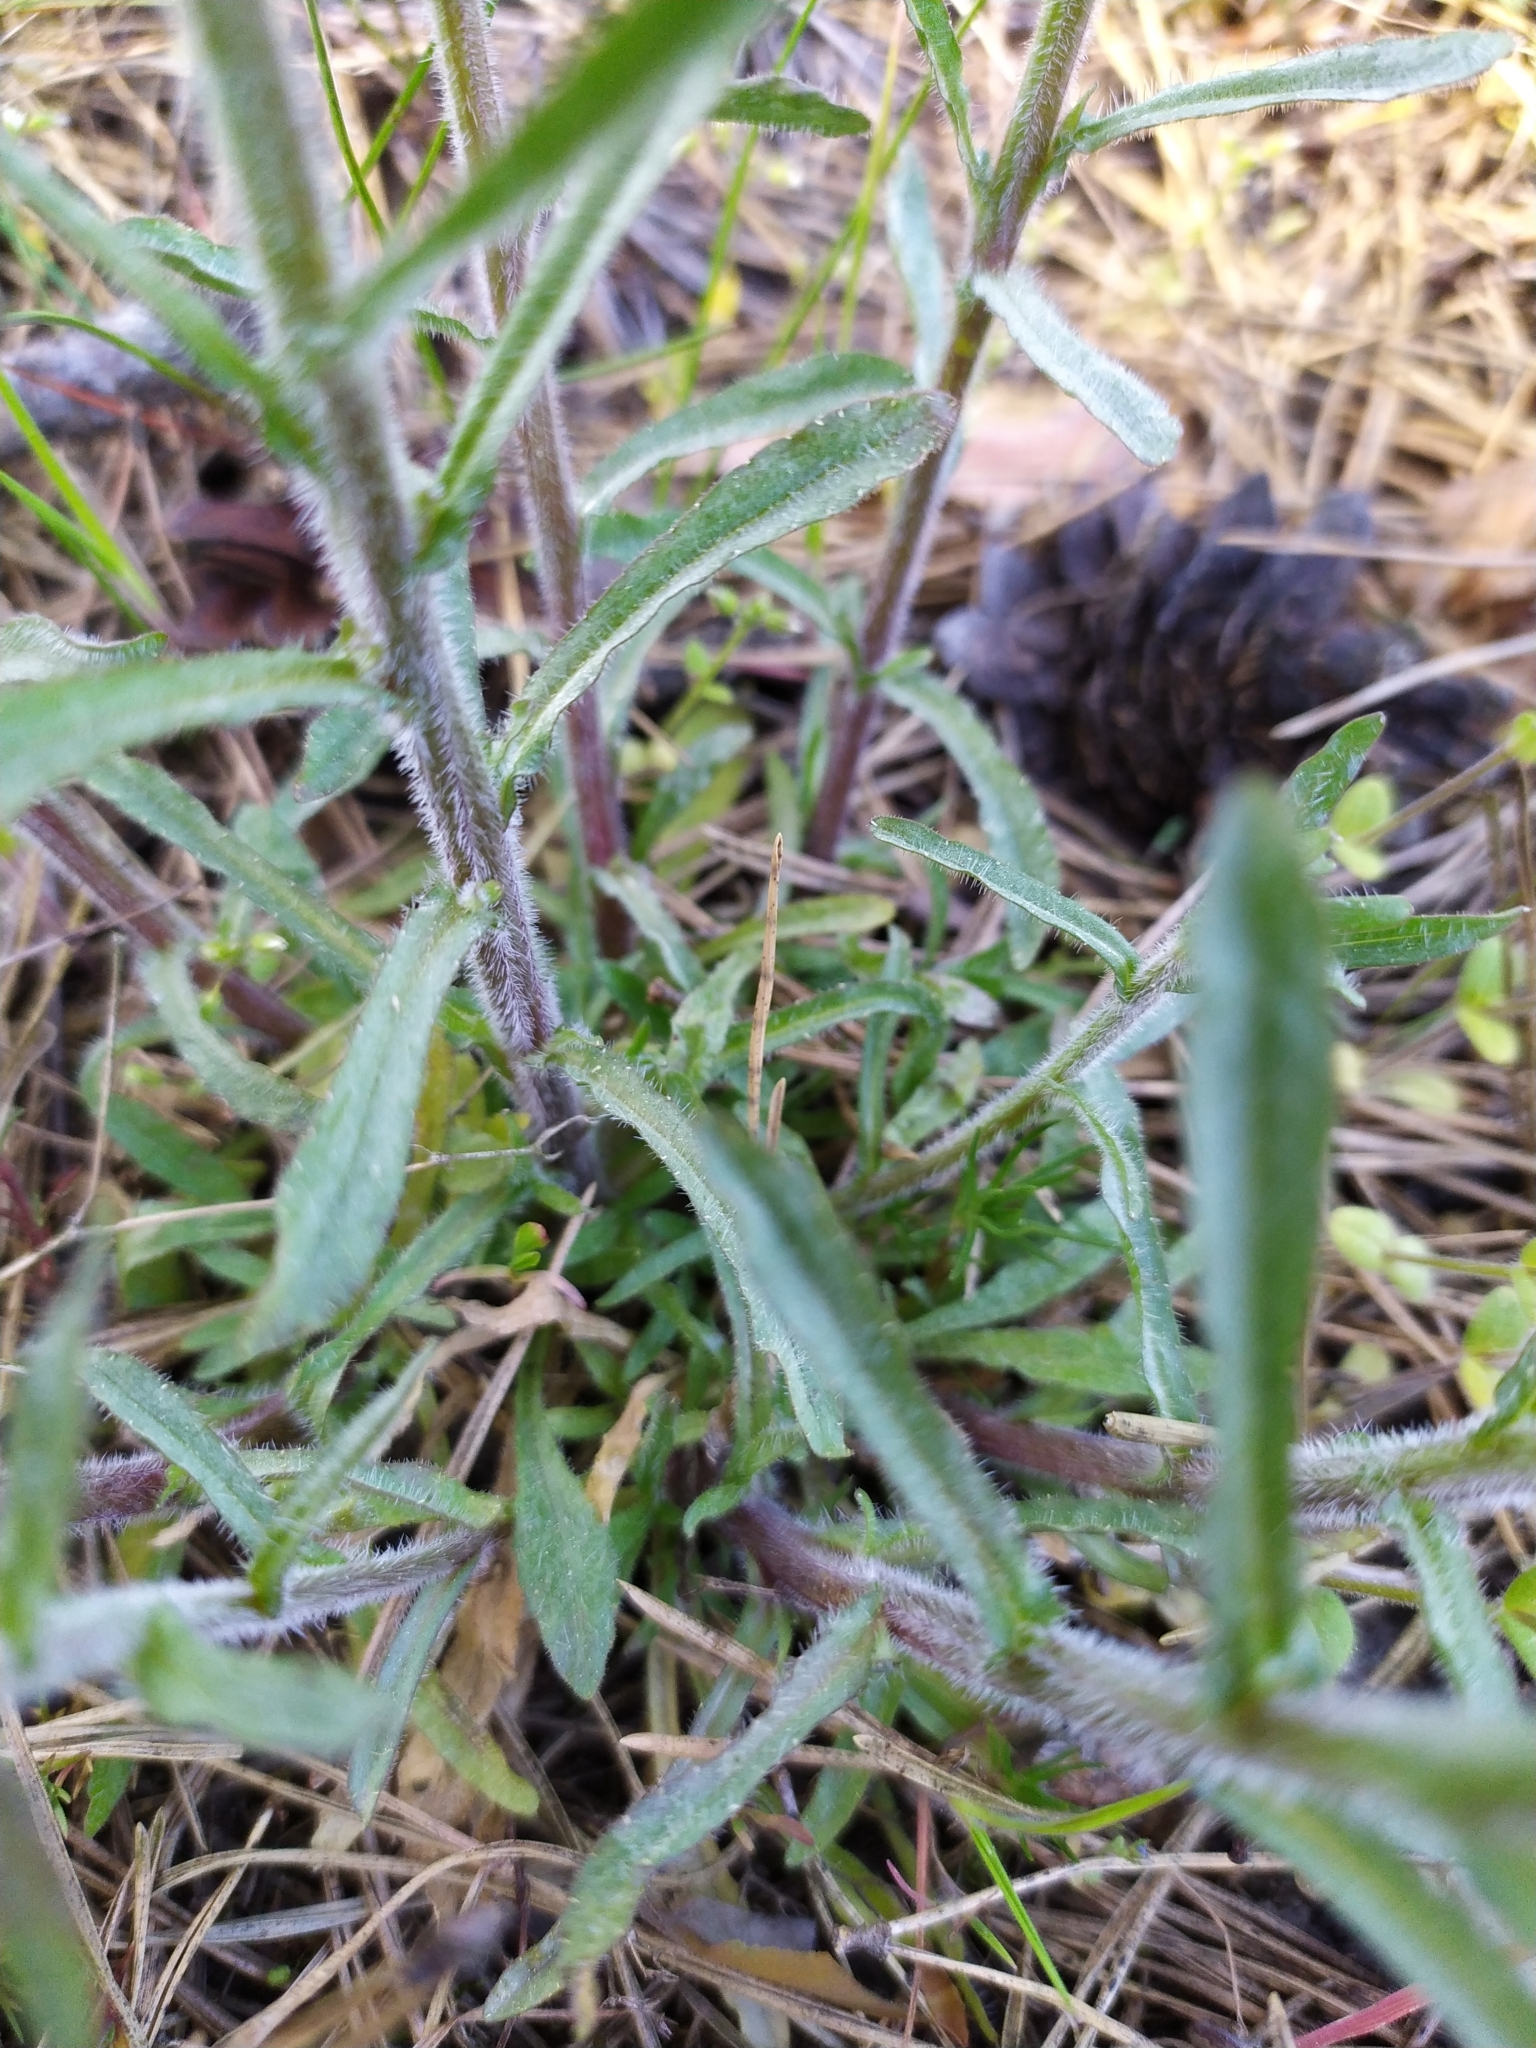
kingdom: Plantae
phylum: Tracheophyta
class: Magnoliopsida
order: Asterales
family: Campanulaceae
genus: Jasione
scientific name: Jasione montana
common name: Sheep's-bit
